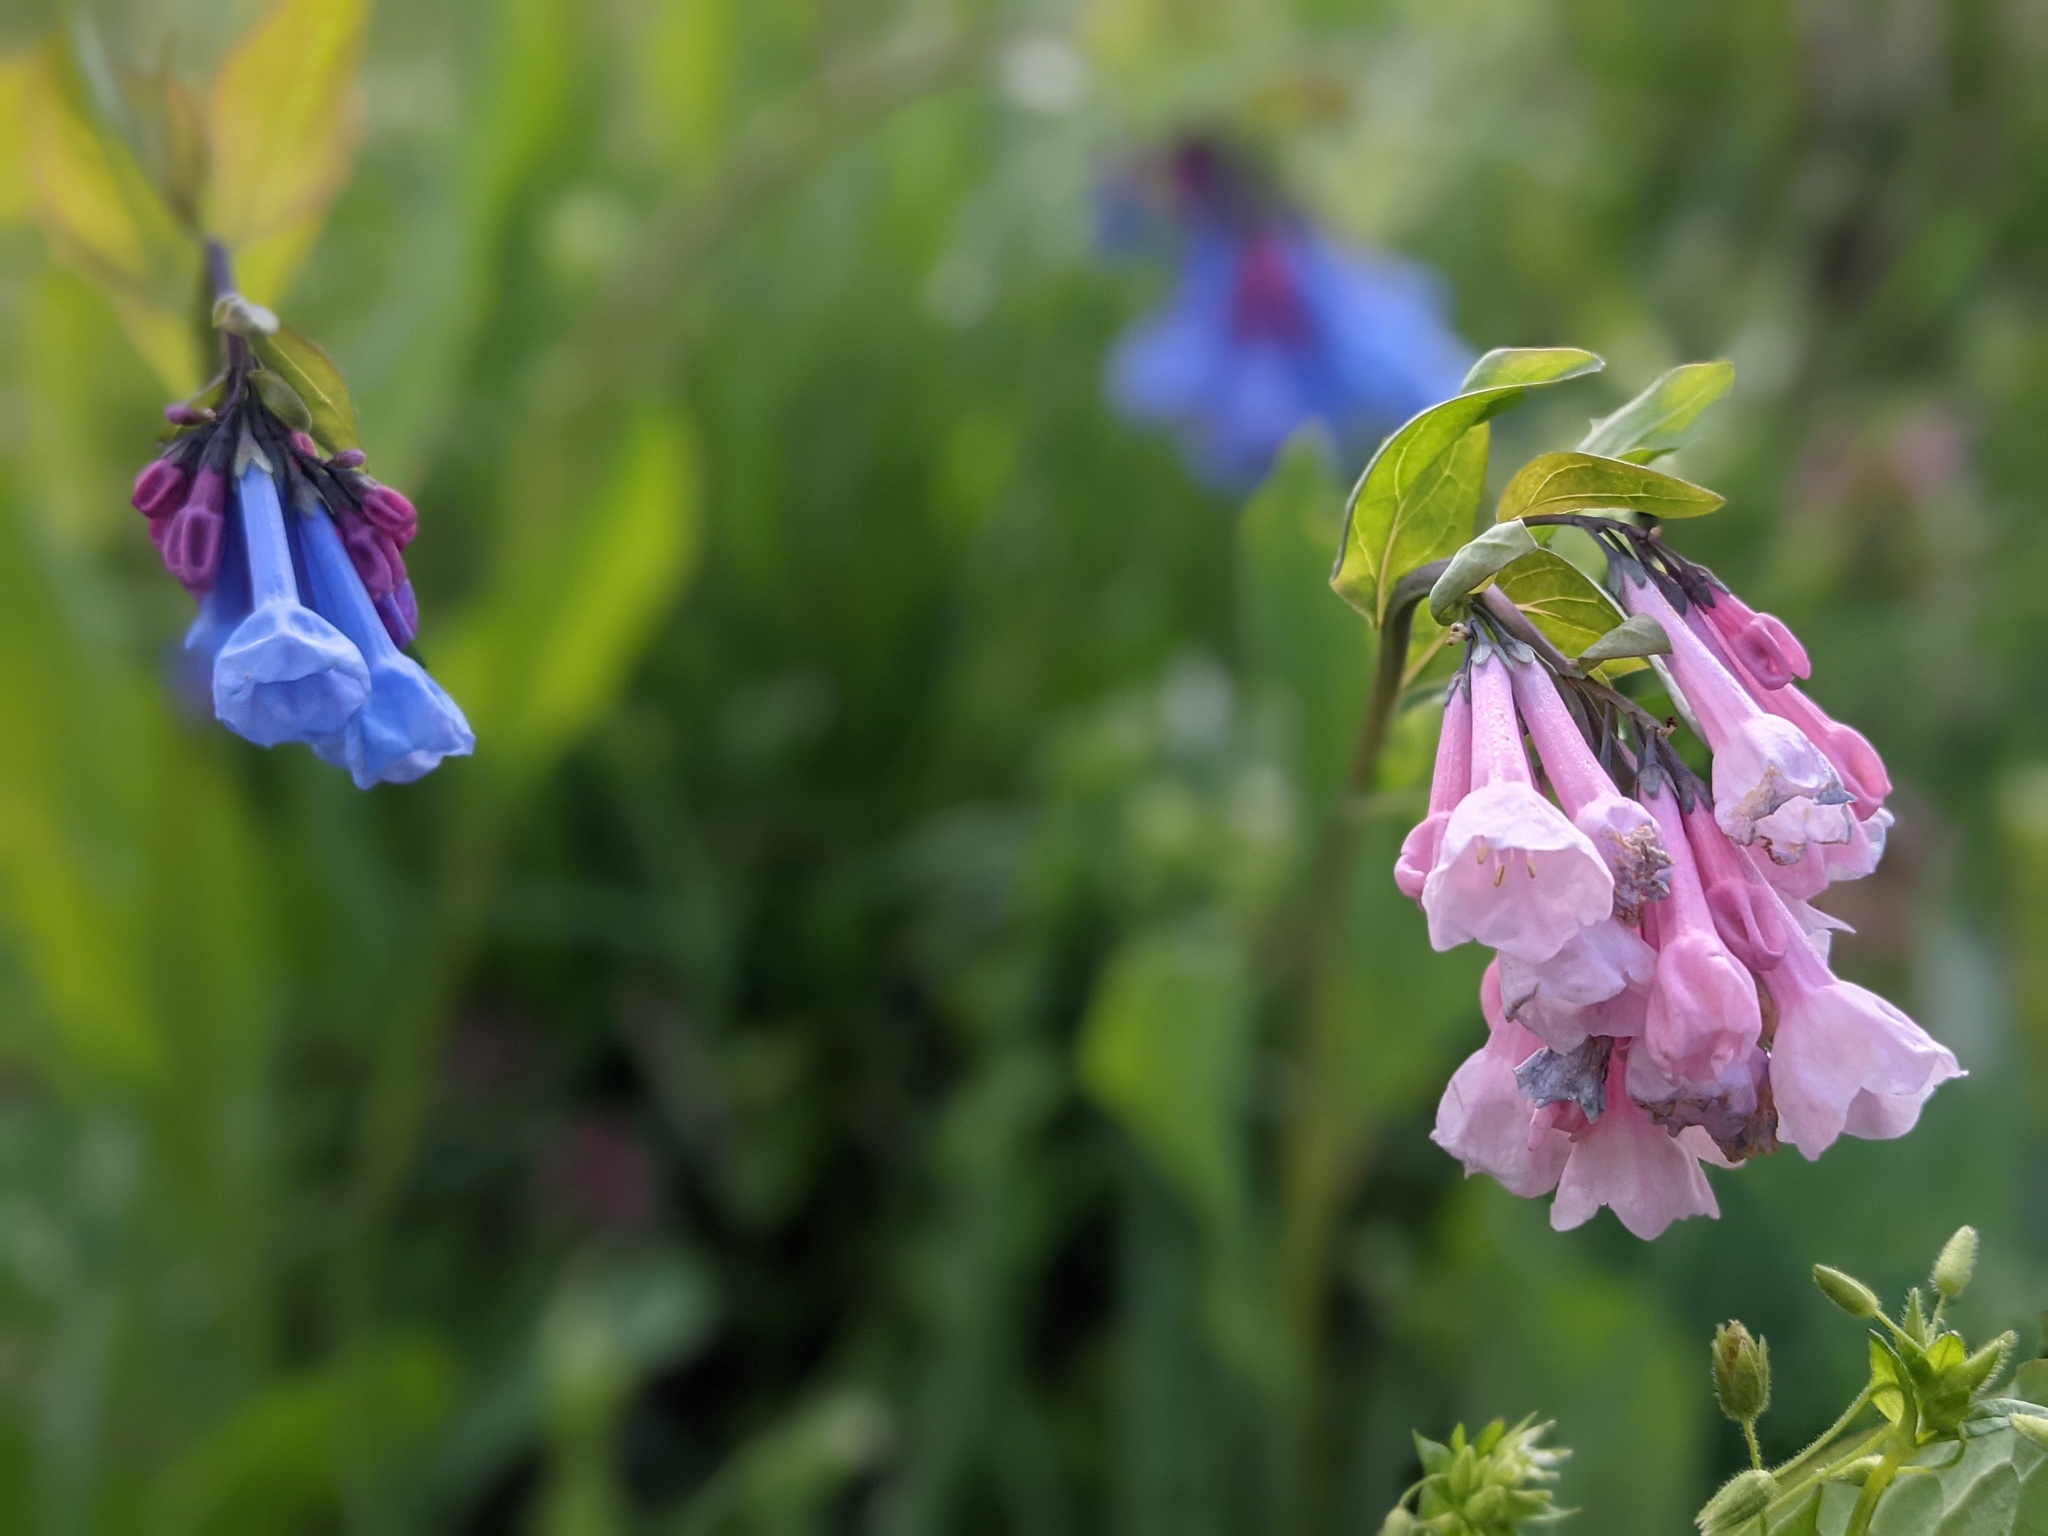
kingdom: Plantae
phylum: Tracheophyta
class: Magnoliopsida
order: Boraginales
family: Boraginaceae
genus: Mertensia
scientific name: Mertensia virginica
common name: Virginia bluebells
